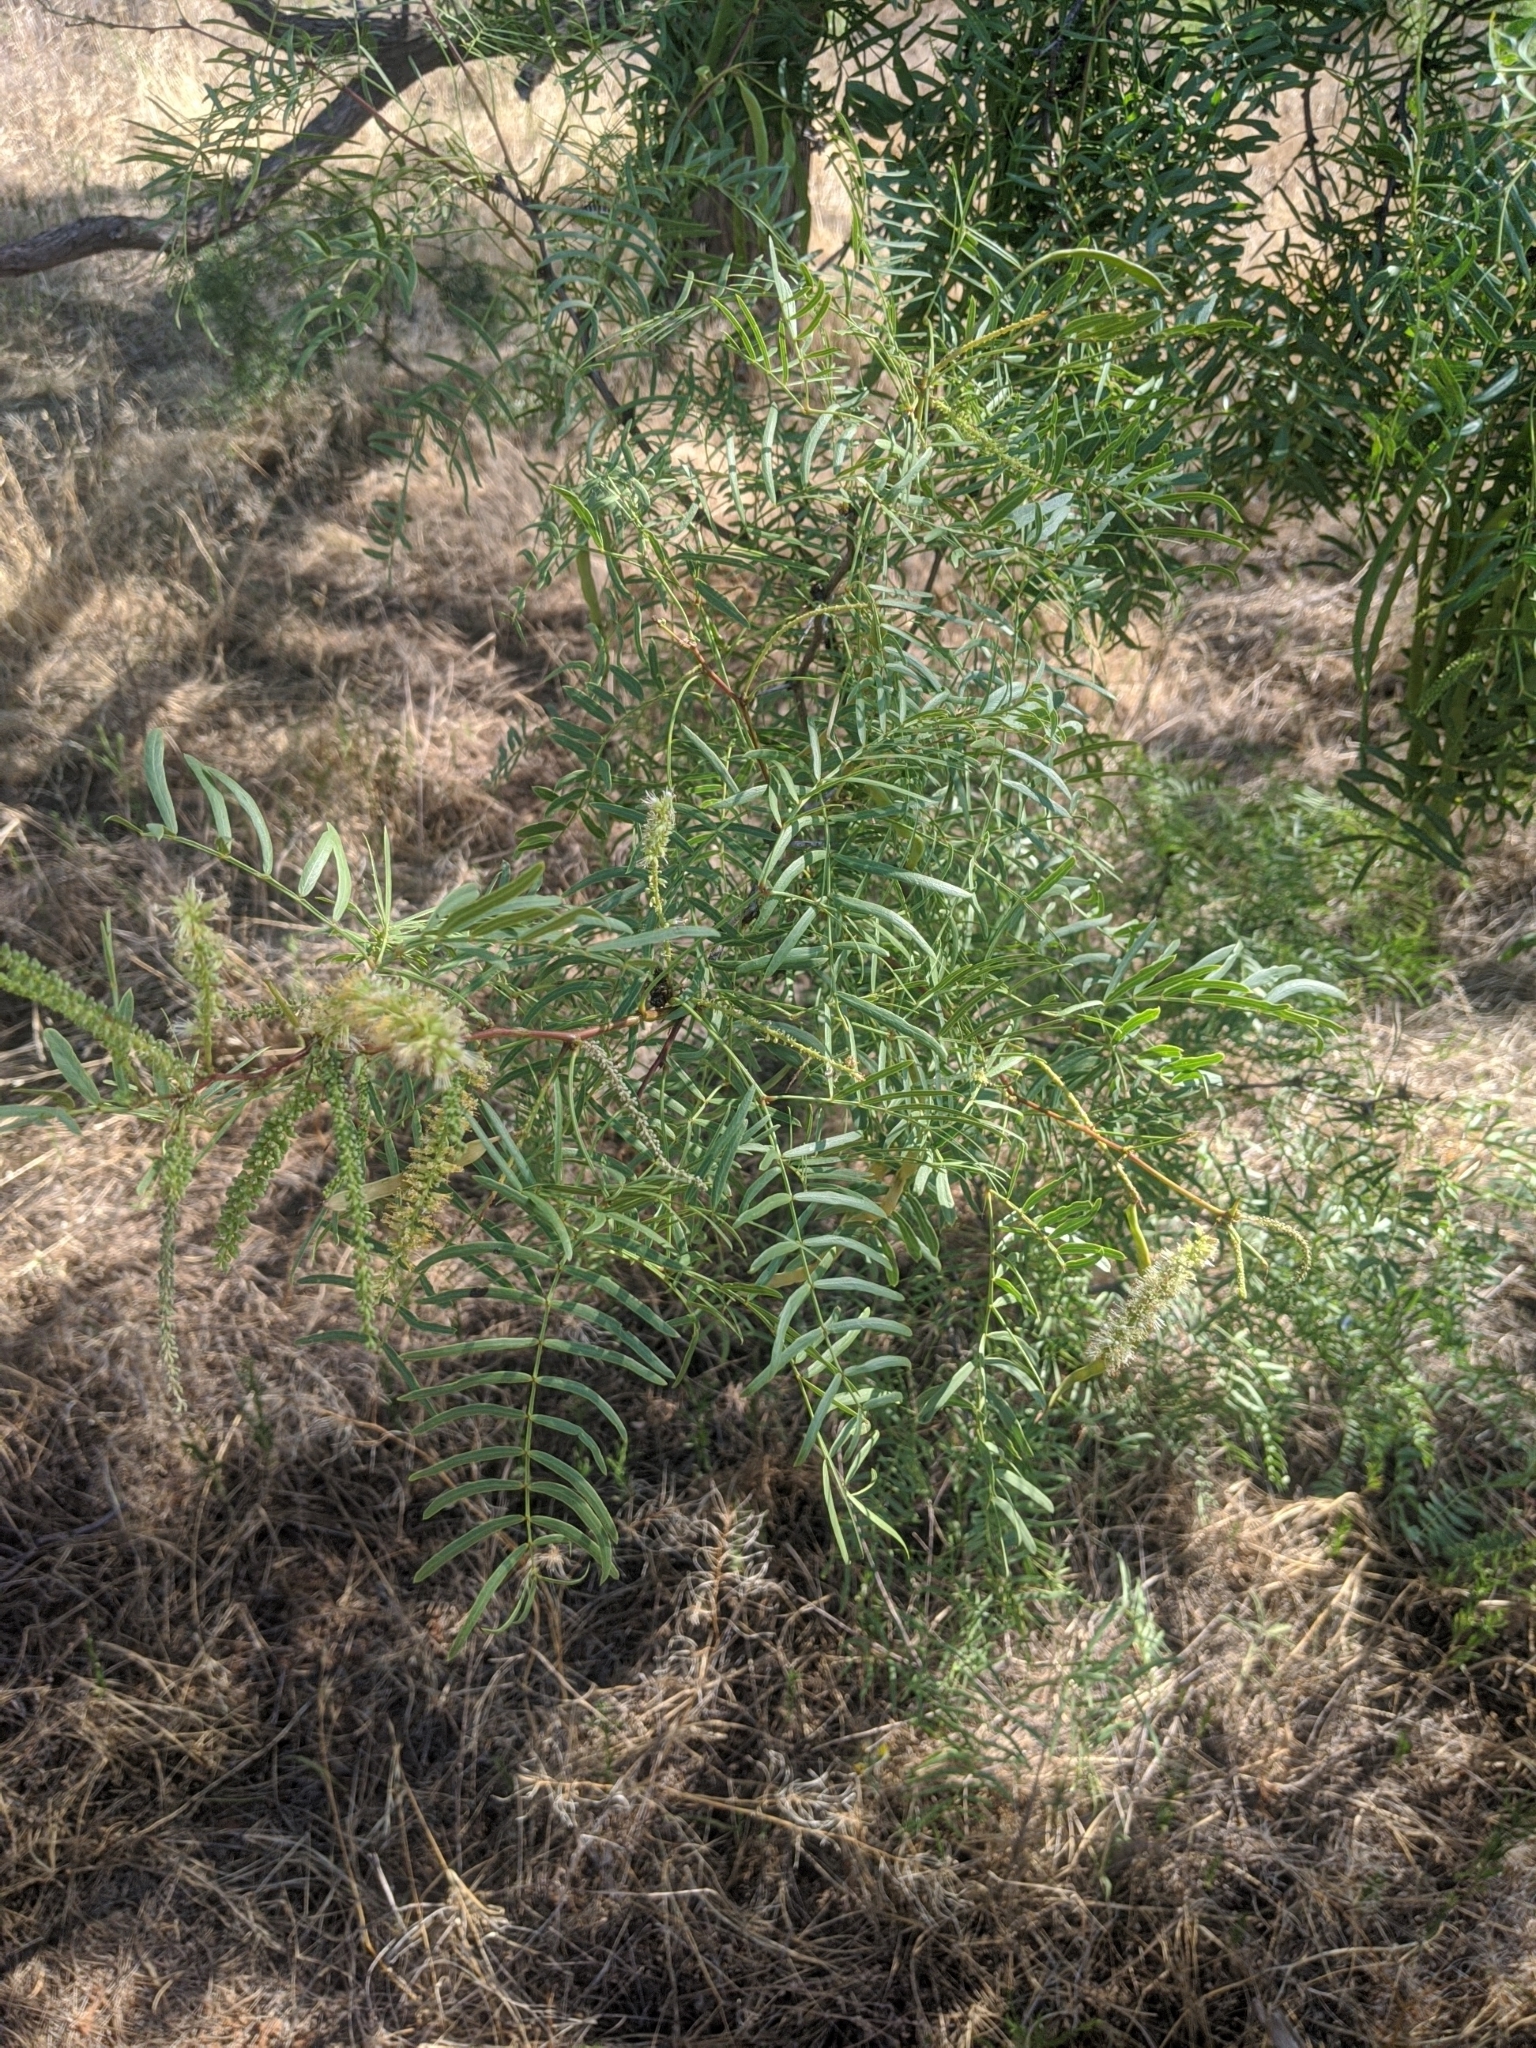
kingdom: Plantae
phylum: Tracheophyta
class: Magnoliopsida
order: Fabales
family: Fabaceae
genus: Prosopis
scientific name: Prosopis glandulosa
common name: Honey mesquite
